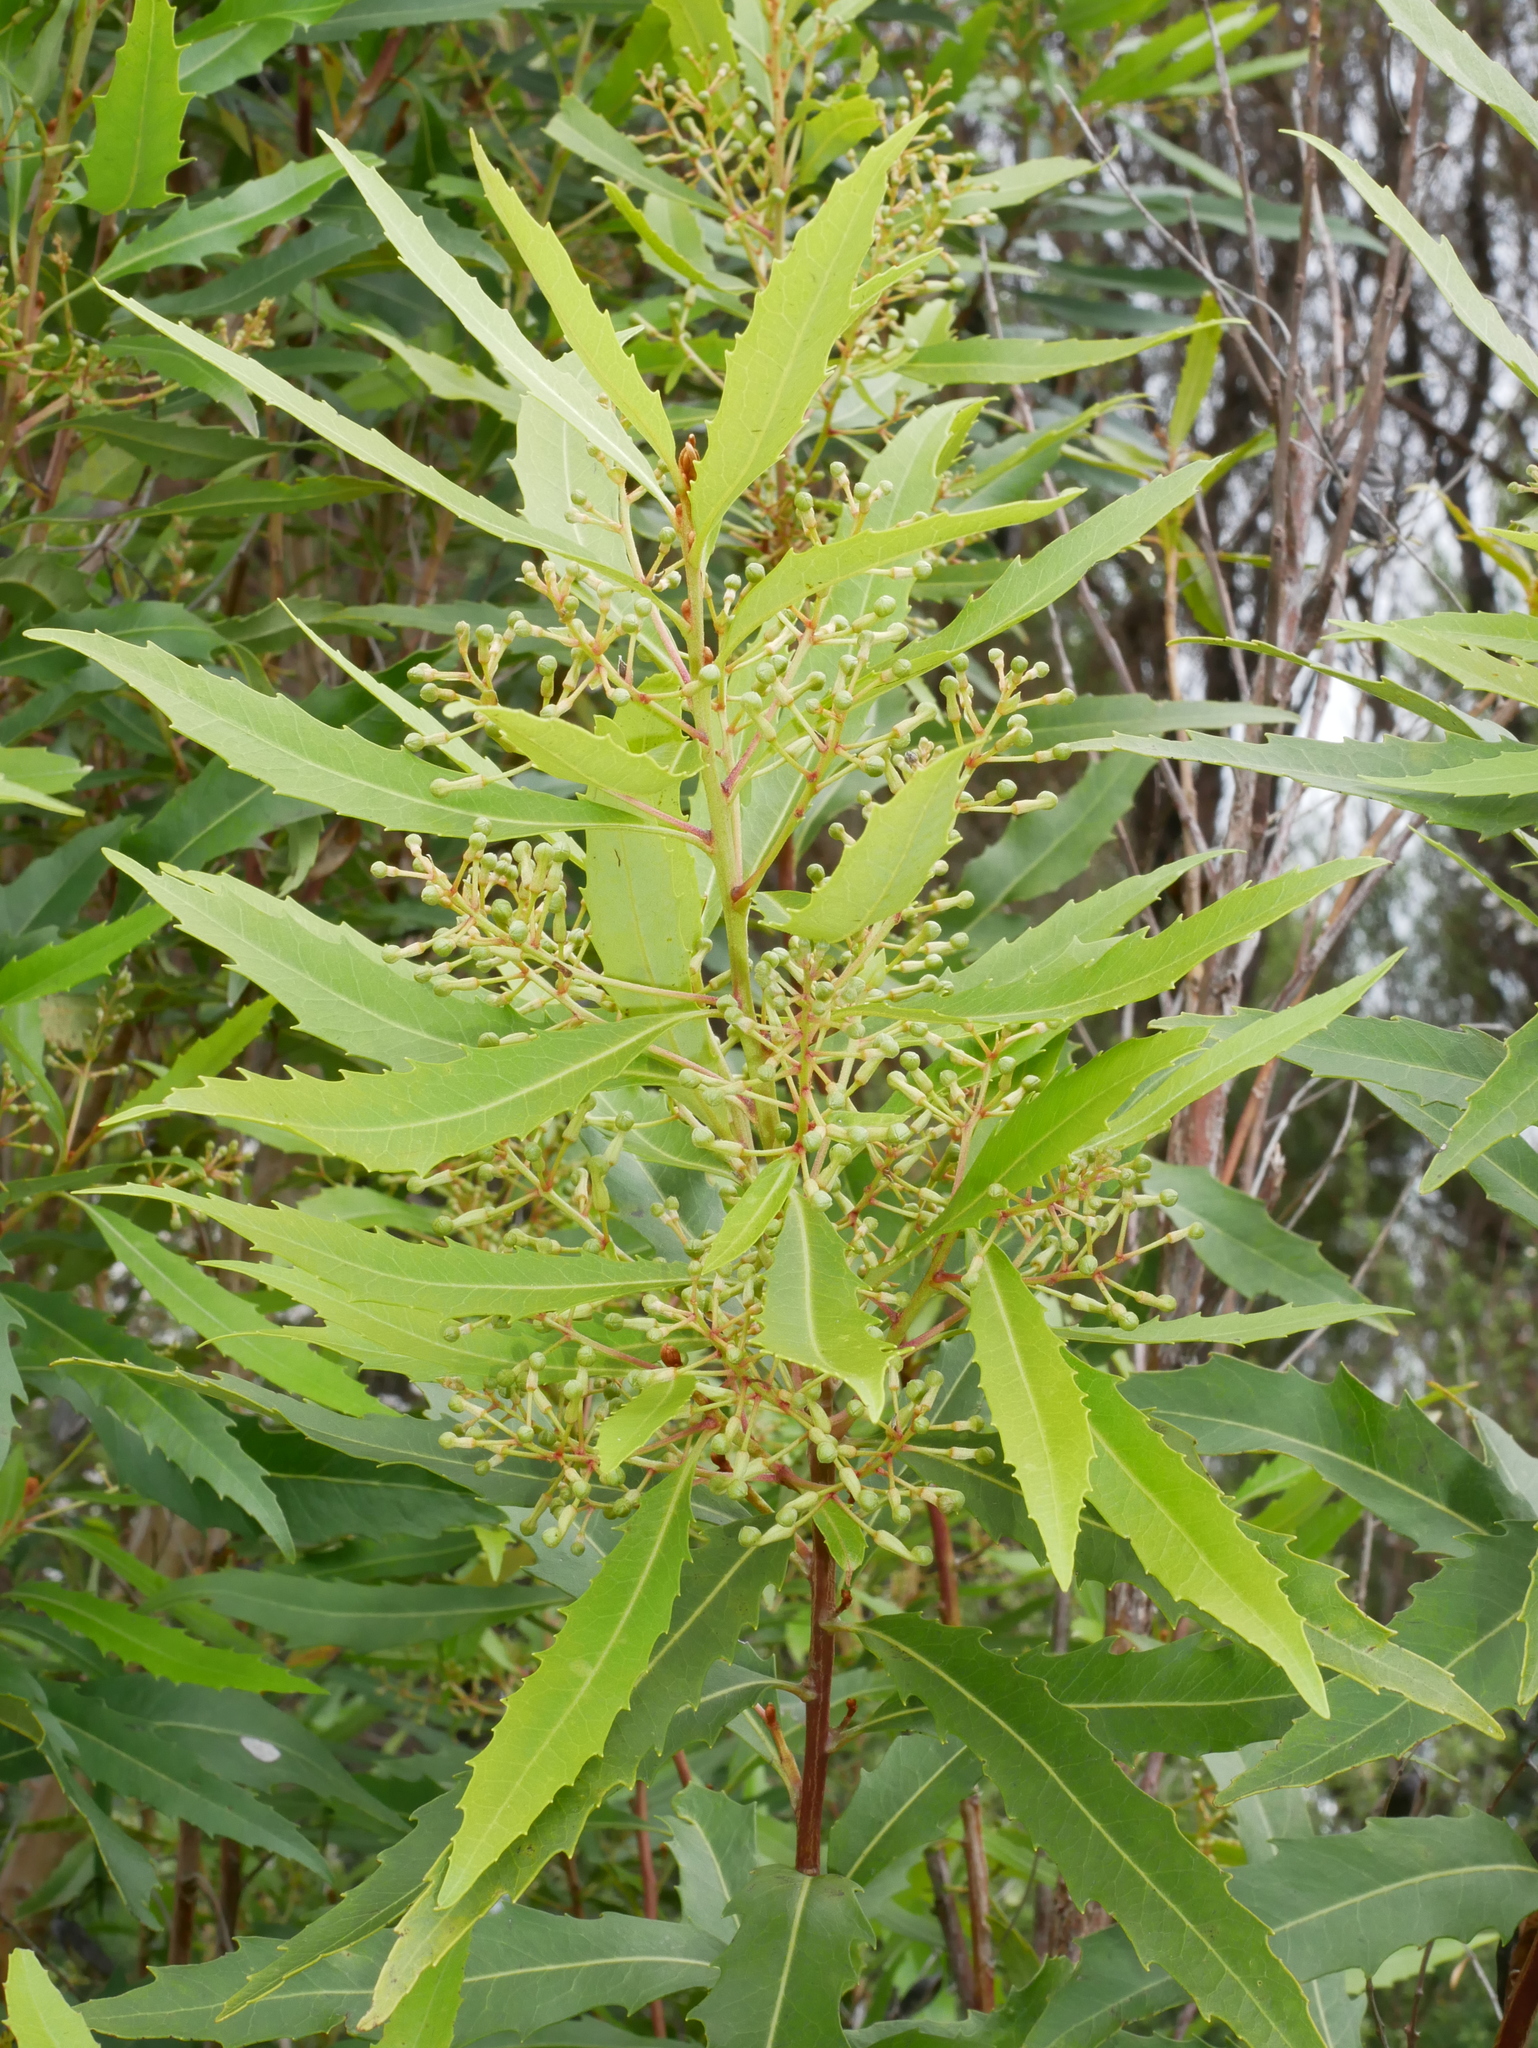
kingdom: Plantae
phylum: Tracheophyta
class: Magnoliopsida
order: Proteales
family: Proteaceae
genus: Lomatia
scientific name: Lomatia fraseri
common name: Forest lomatia
